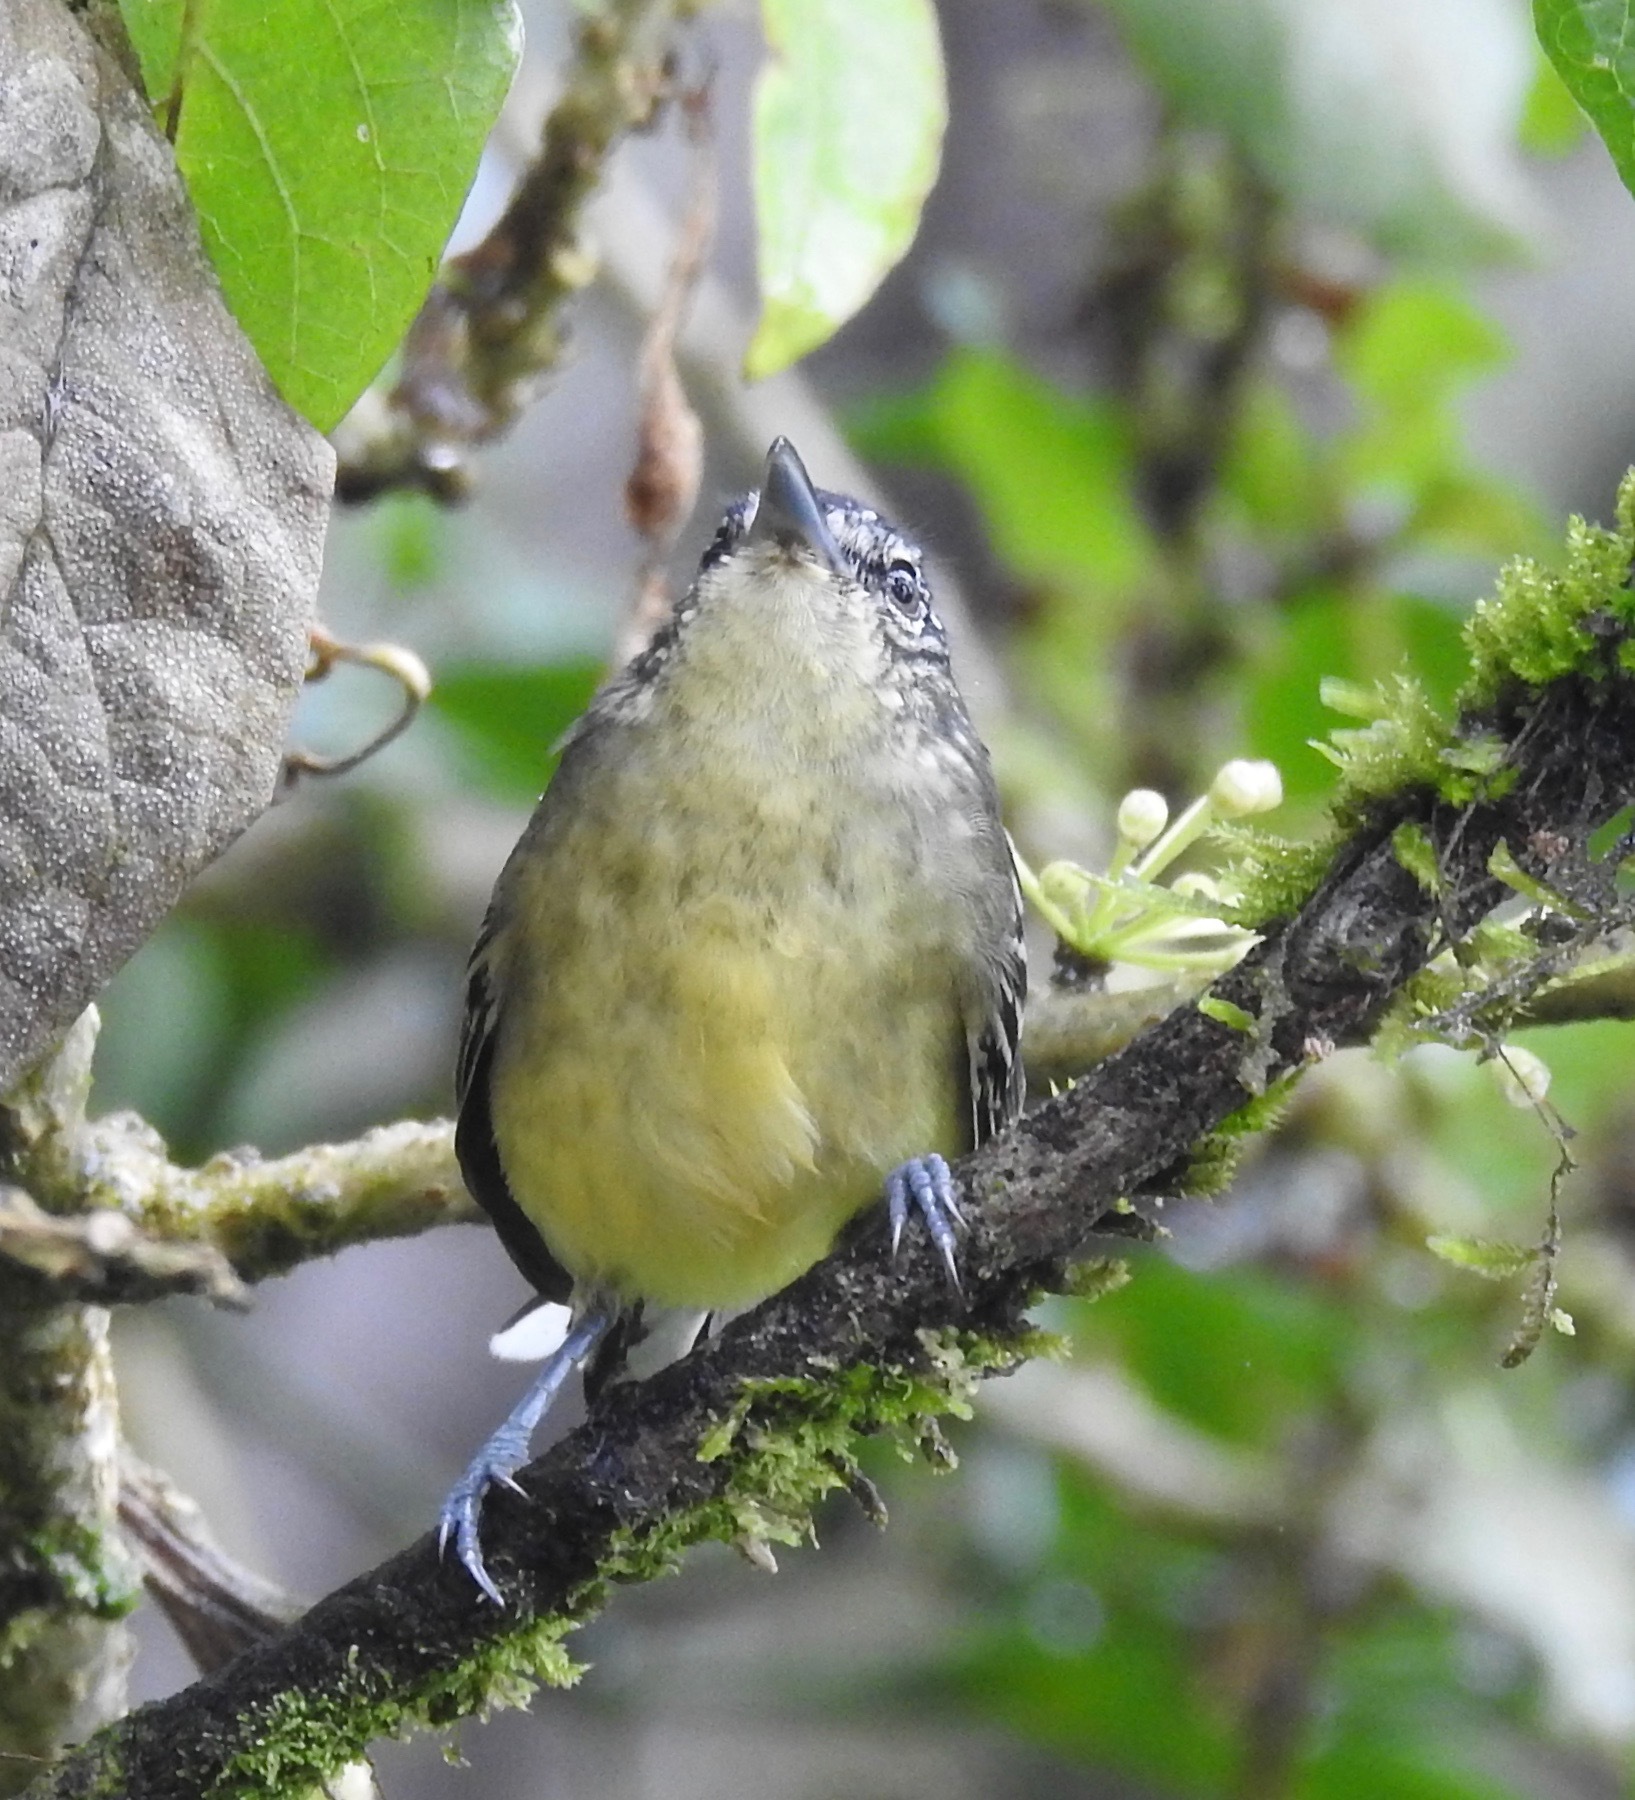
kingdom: Animalia
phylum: Chordata
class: Aves
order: Passeriformes
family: Thamnophilidae
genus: Herpsilochmus
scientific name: Herpsilochmus axillaris
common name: Yellow-breasted antwren
